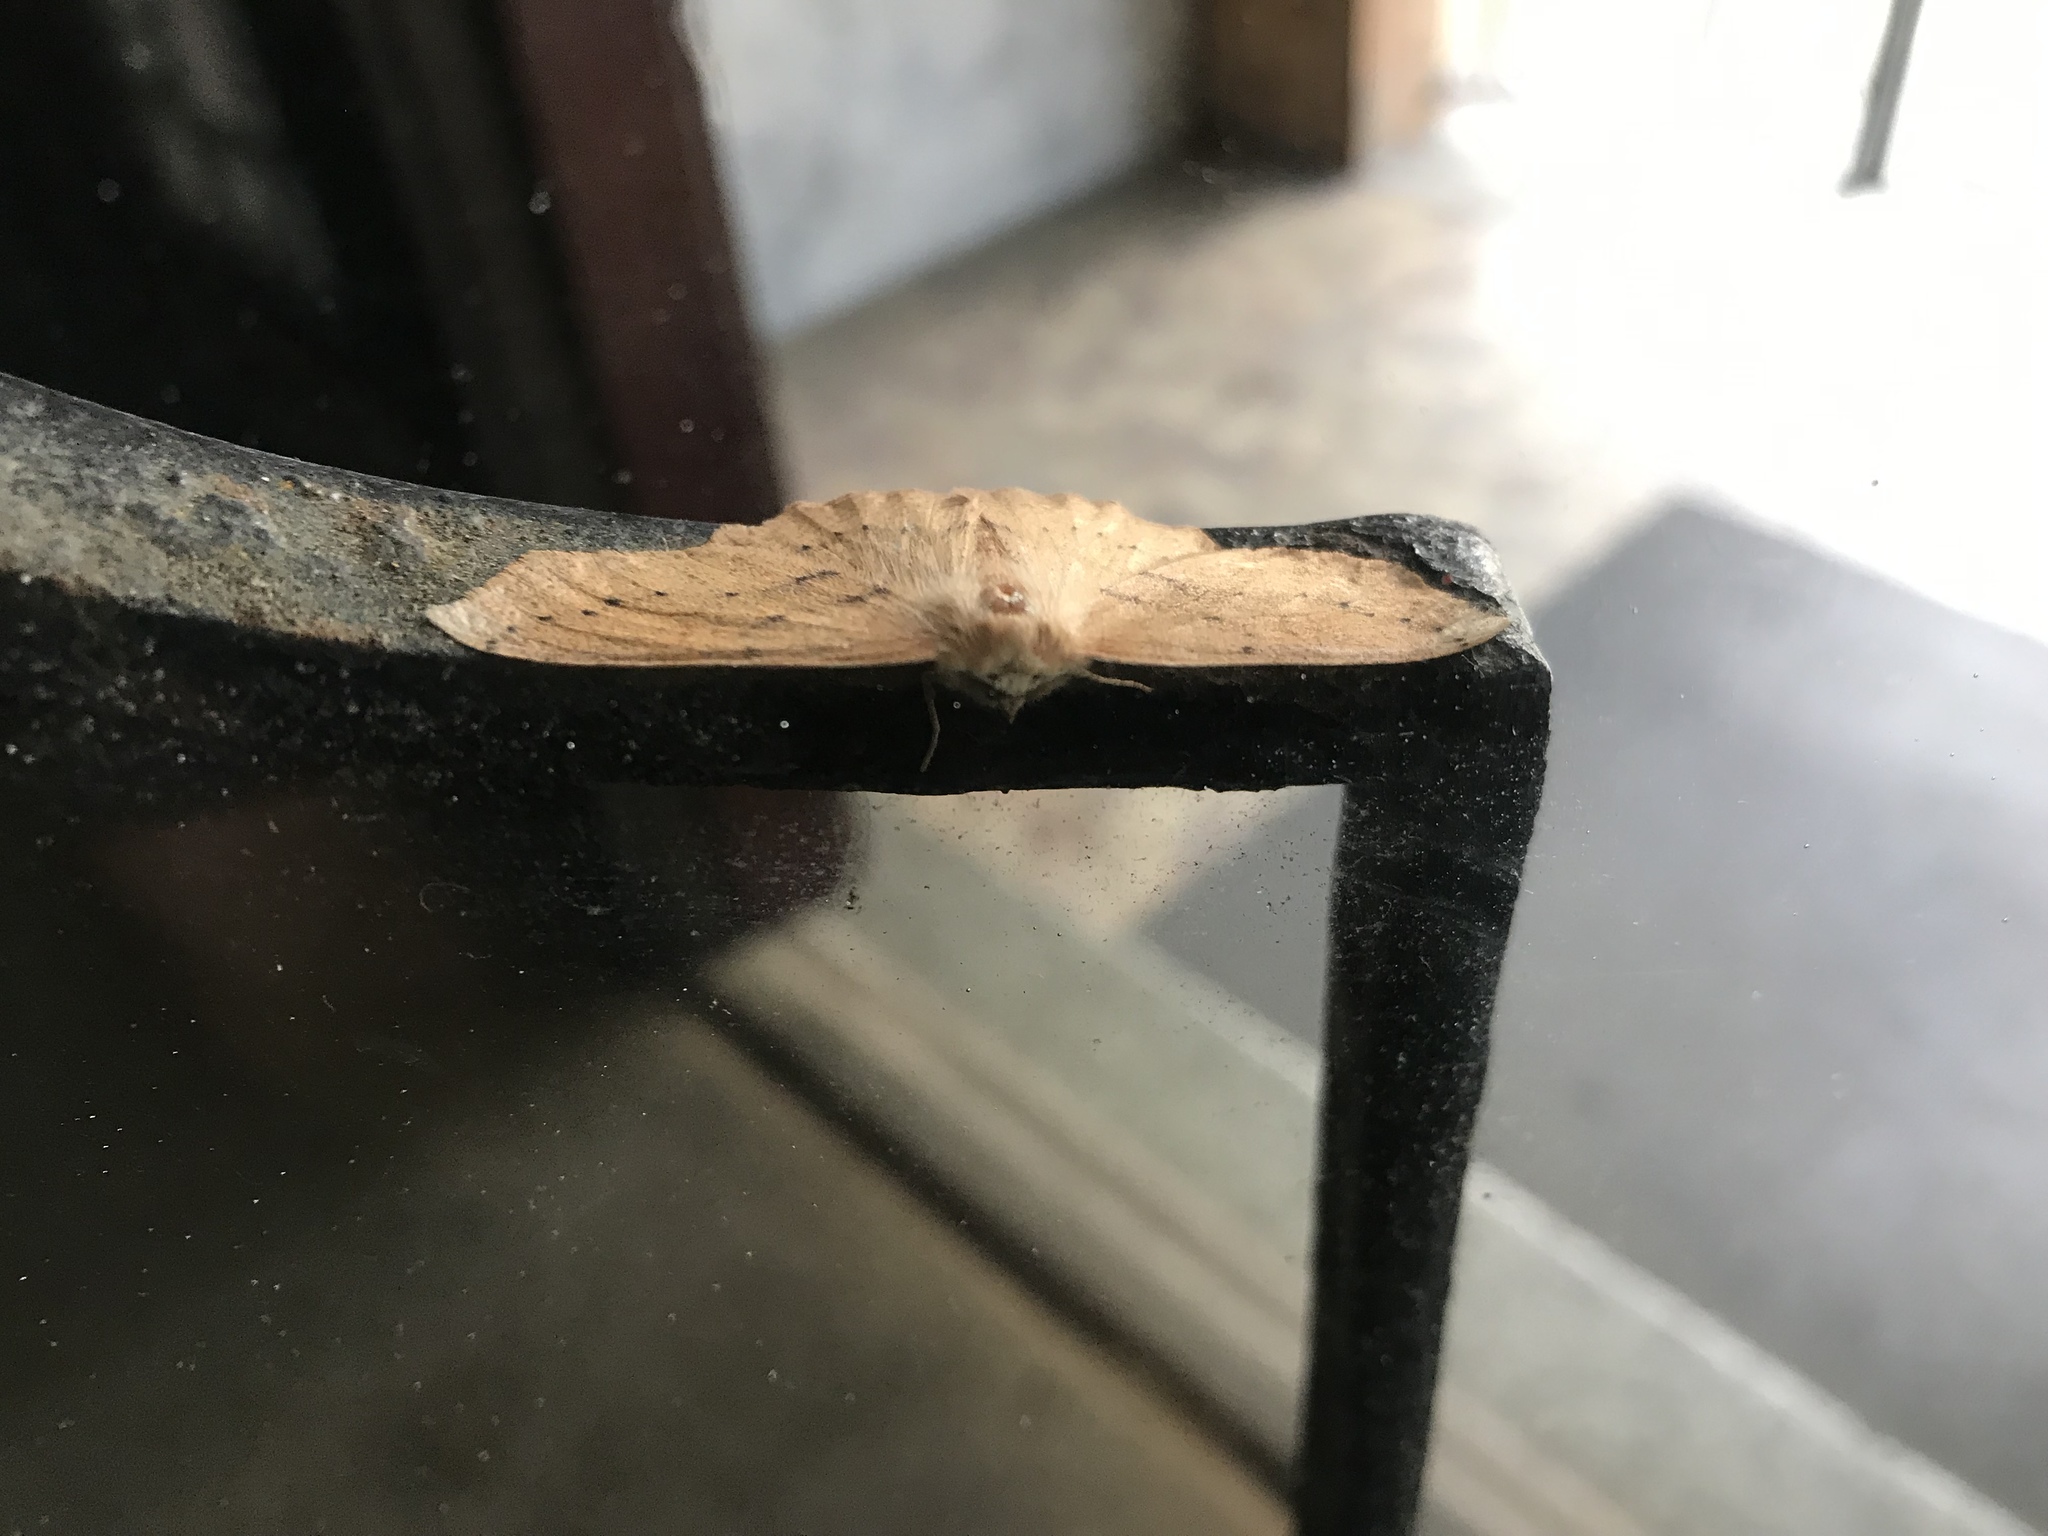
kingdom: Animalia
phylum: Arthropoda
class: Insecta
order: Lepidoptera
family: Geometridae
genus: Sabulodes
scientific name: Sabulodes aegrotata
